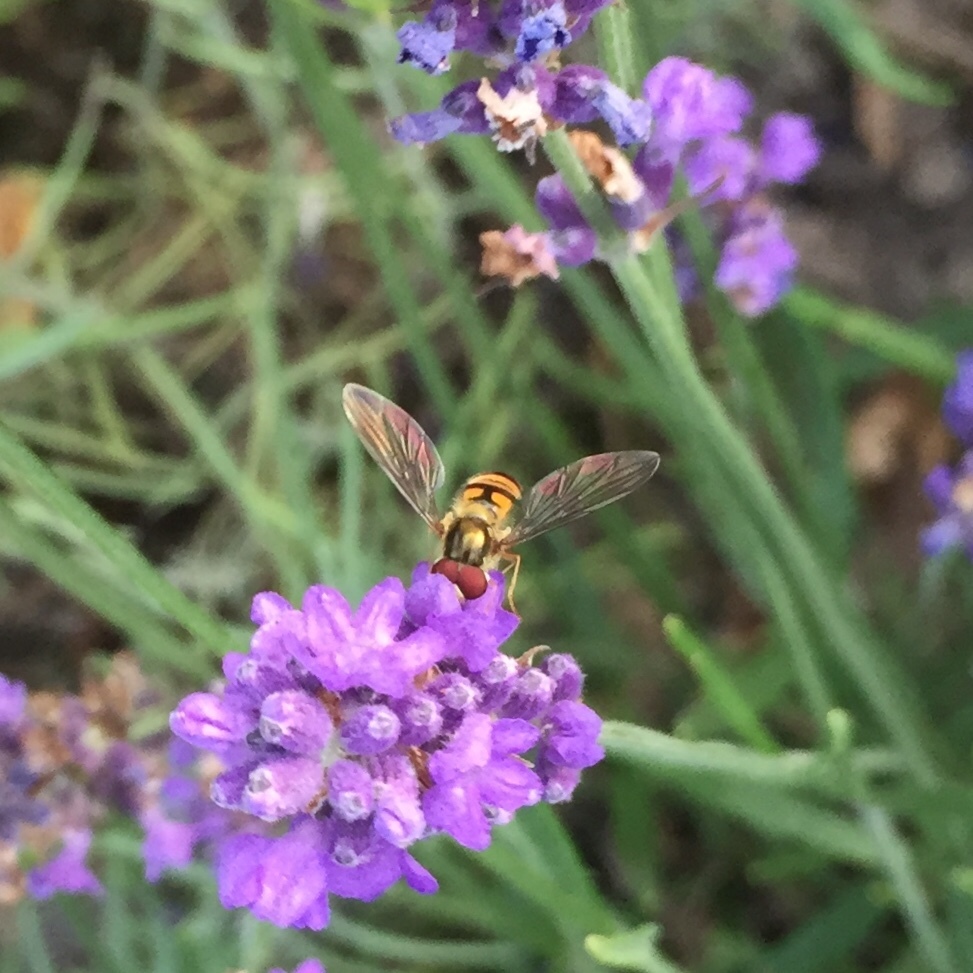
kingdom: Animalia
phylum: Arthropoda
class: Insecta
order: Diptera
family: Syrphidae
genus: Episyrphus
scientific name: Episyrphus balteatus
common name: Marmalade hoverfly
